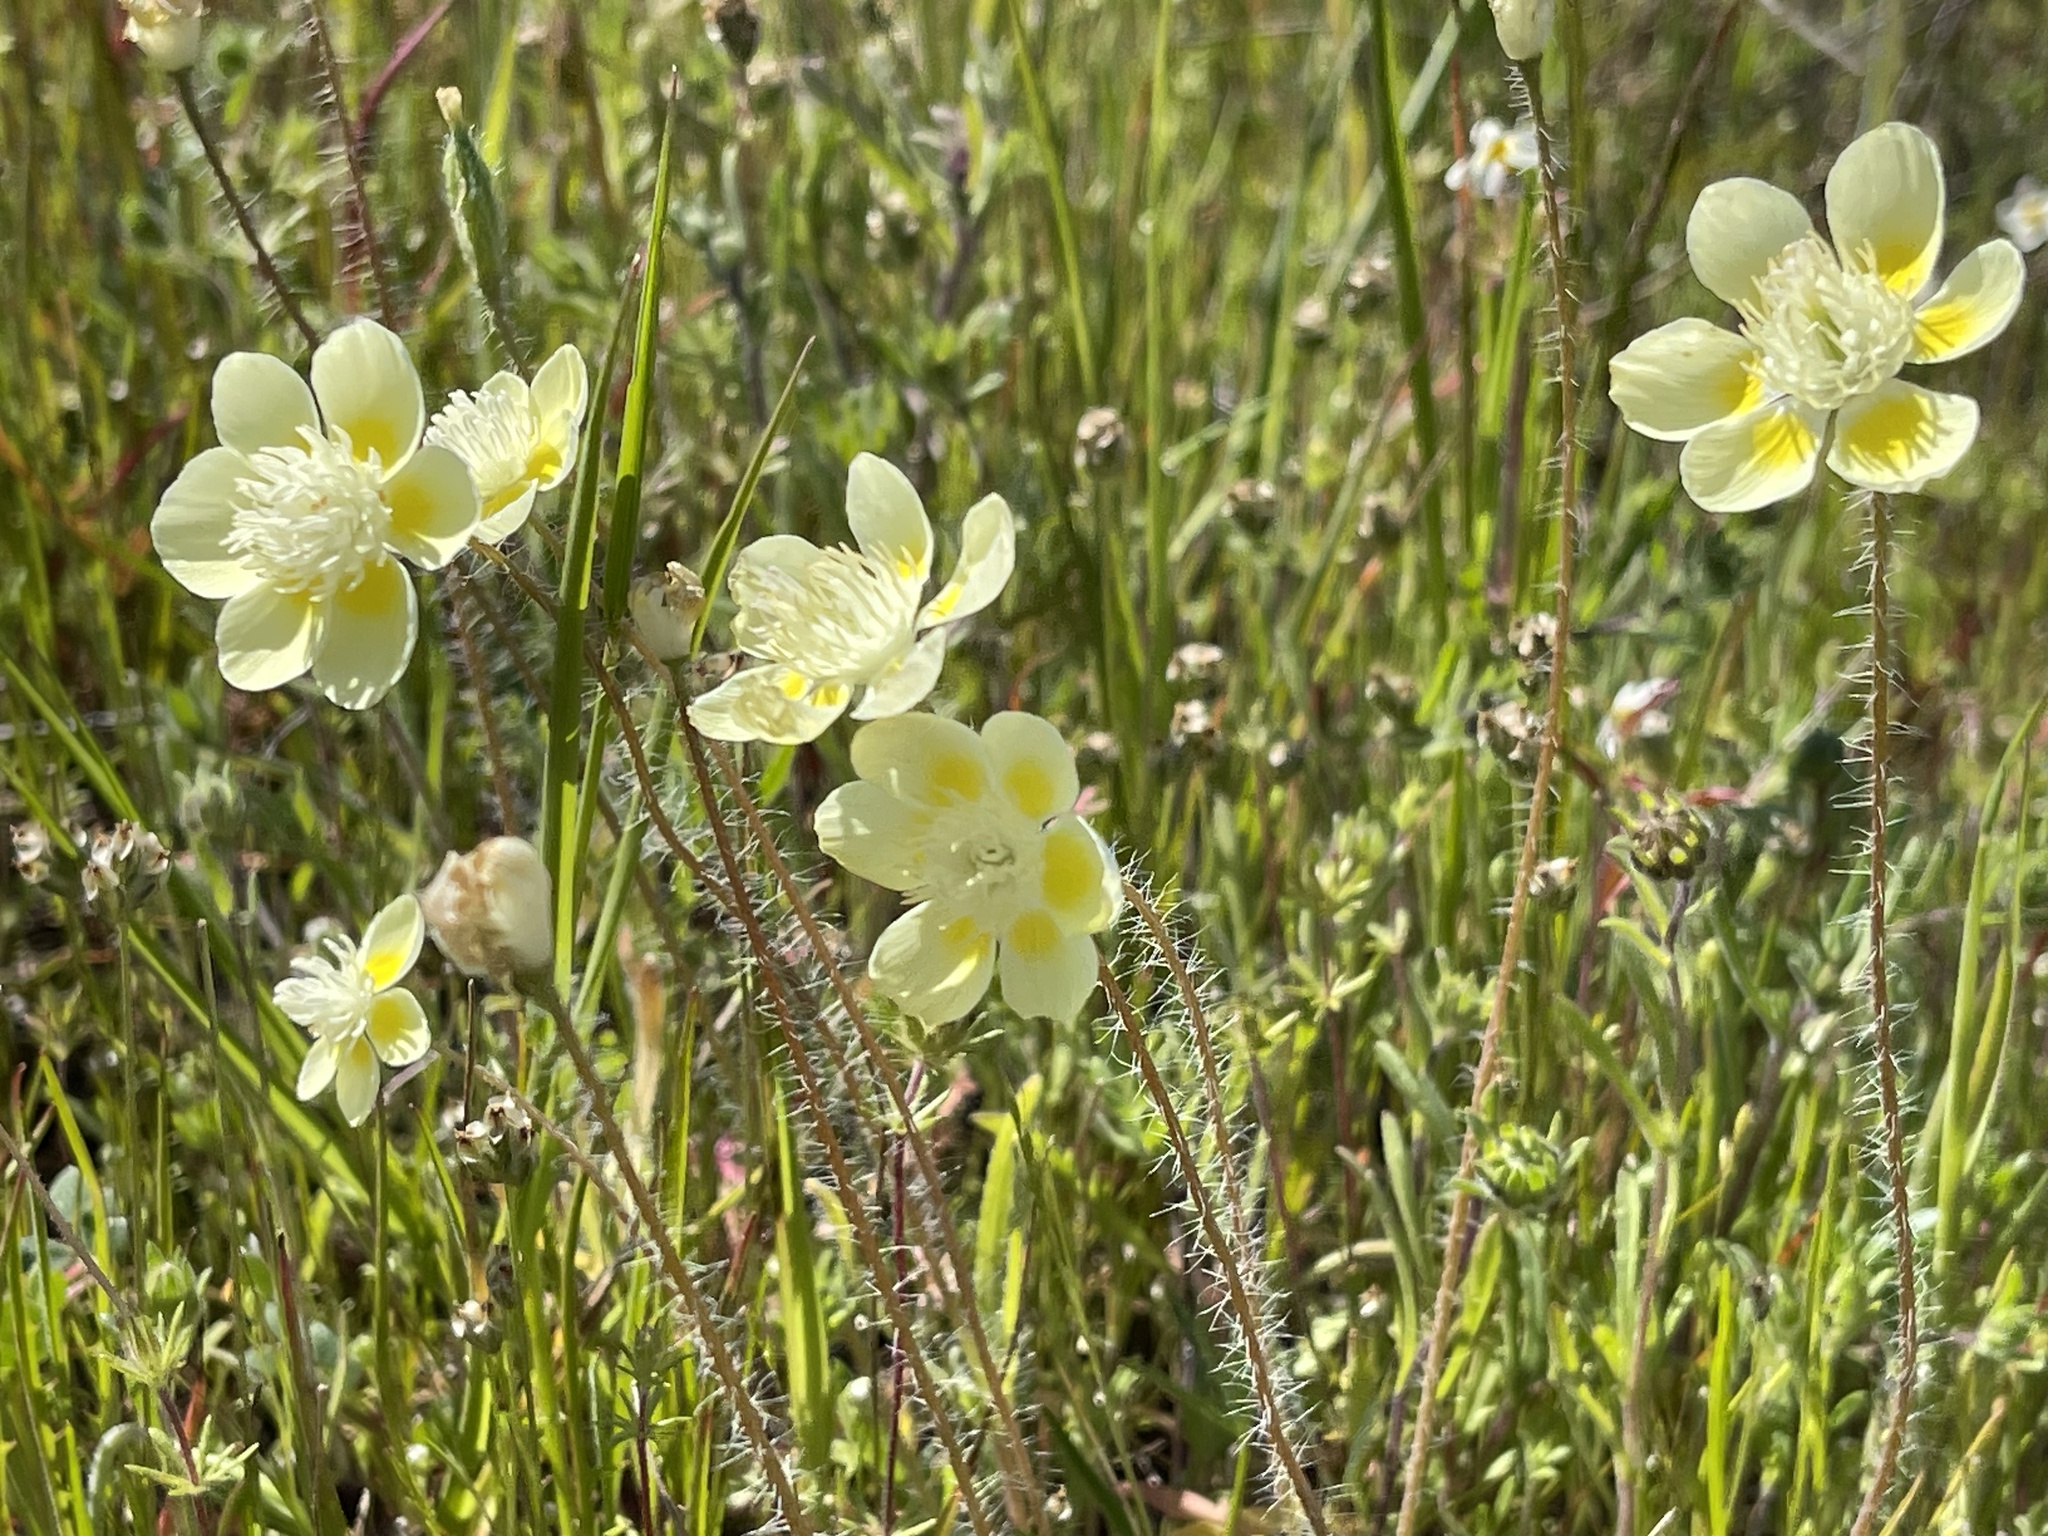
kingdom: Plantae
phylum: Tracheophyta
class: Magnoliopsida
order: Ranunculales
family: Papaveraceae
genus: Platystemon
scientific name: Platystemon californicus
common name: Cream-cups
